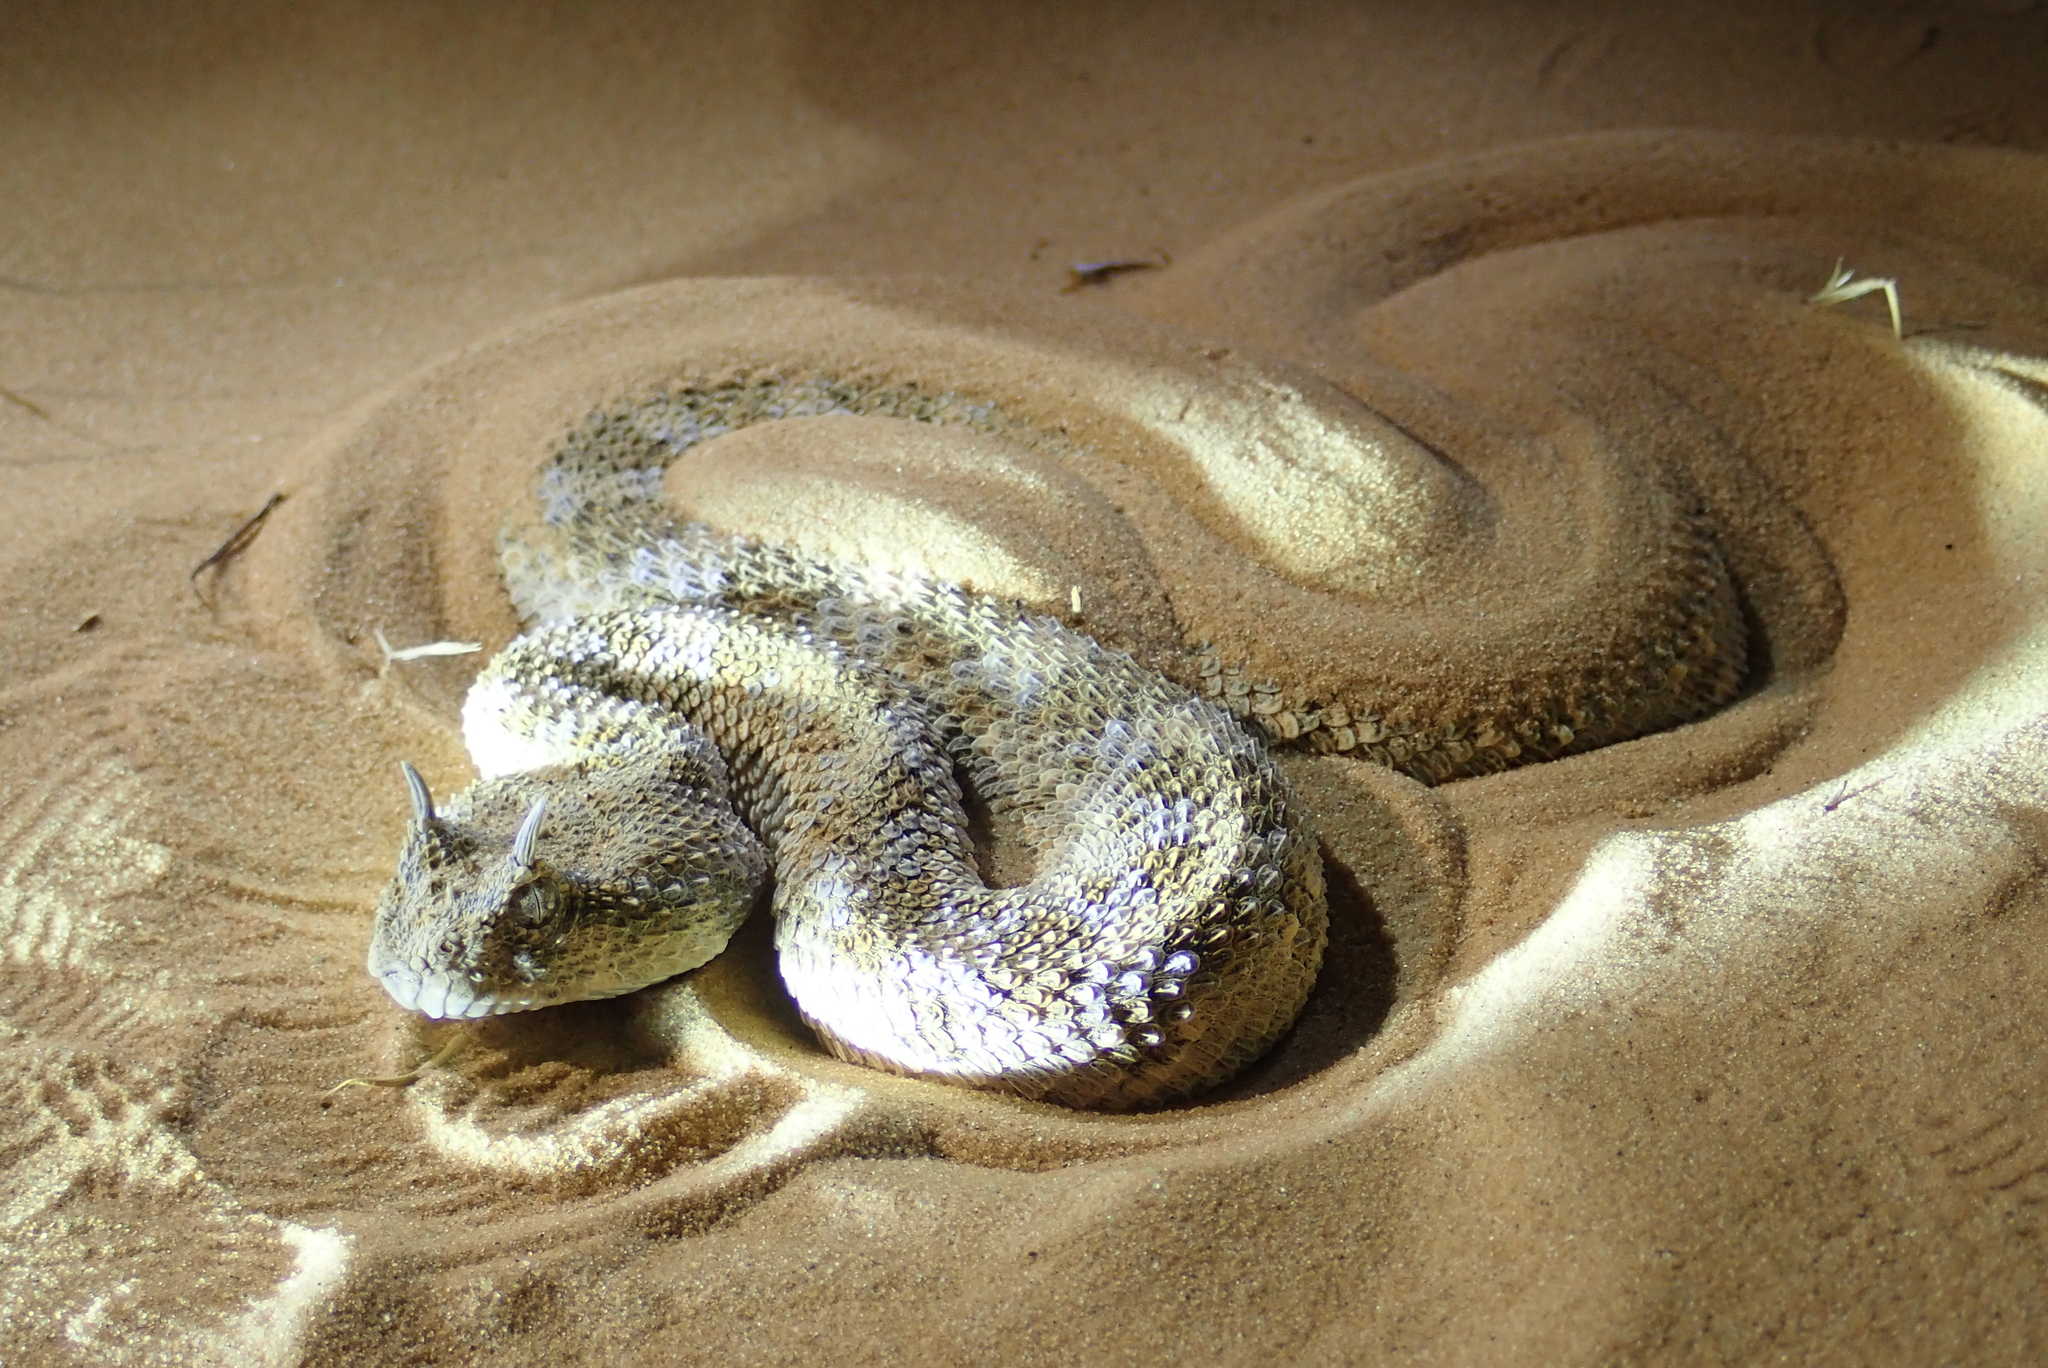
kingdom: Animalia
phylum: Chordata
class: Squamata
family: Viperidae
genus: Cerastes
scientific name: Cerastes cerastes
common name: Desert horned viper
